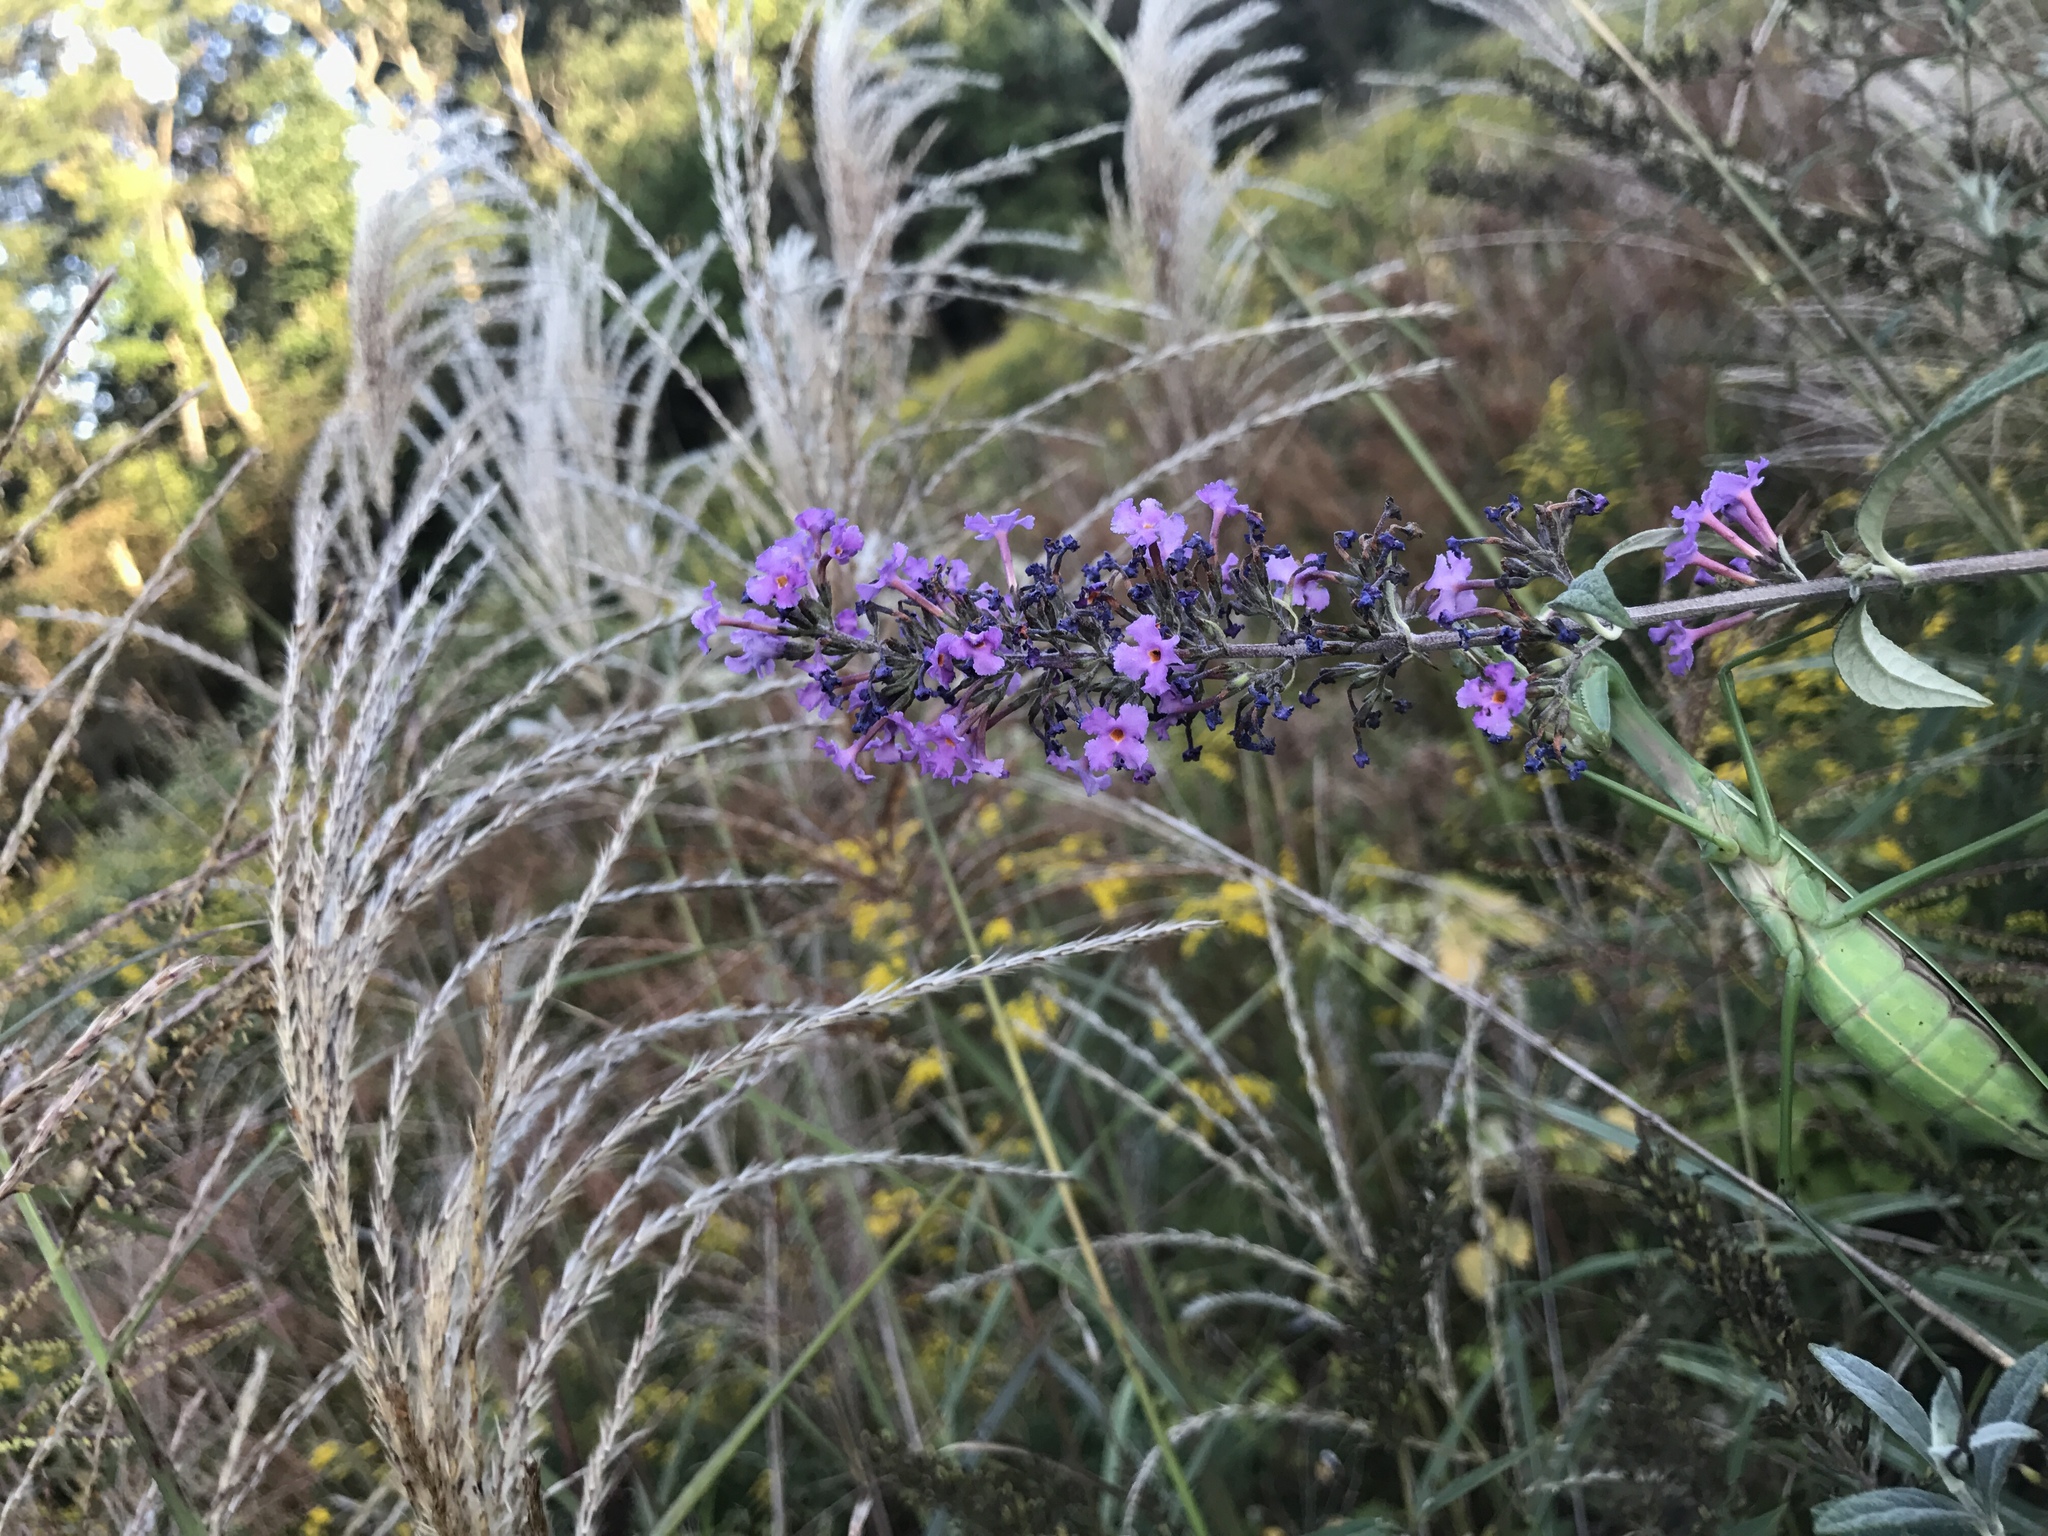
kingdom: Plantae
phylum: Tracheophyta
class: Magnoliopsida
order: Lamiales
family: Scrophulariaceae
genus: Buddleja
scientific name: Buddleja davidii
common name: Butterfly-bush
